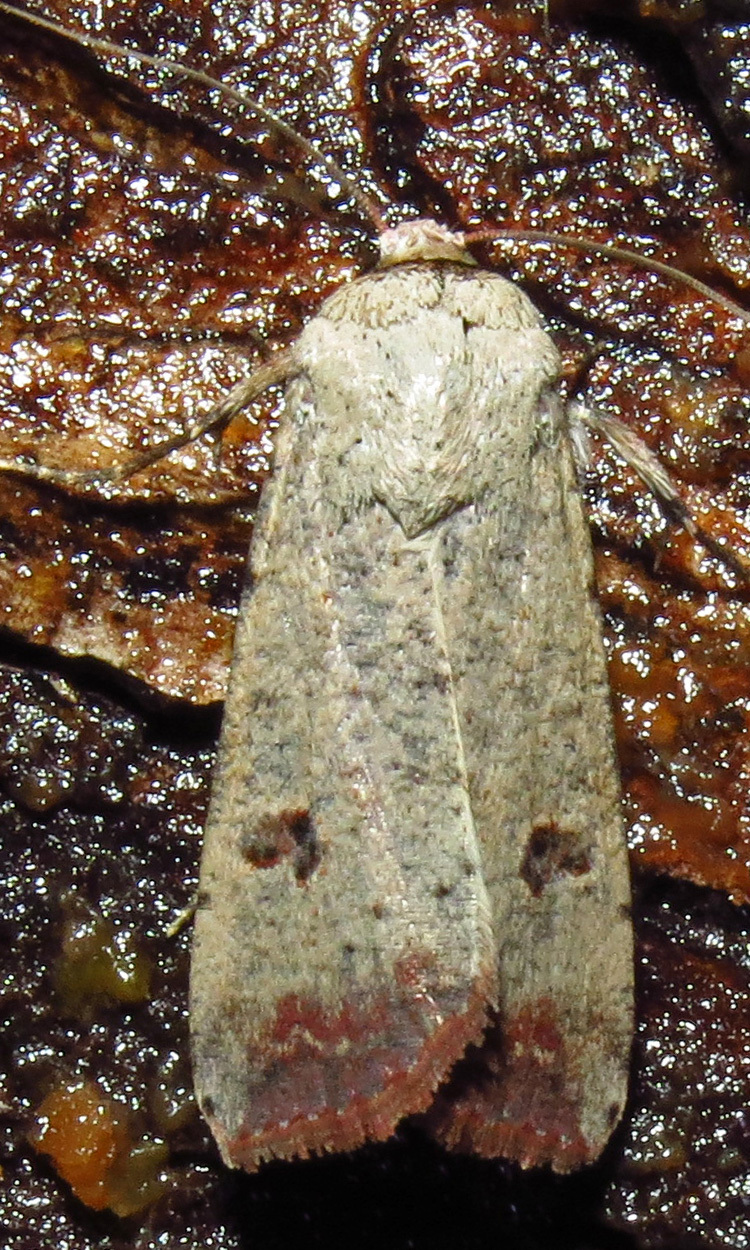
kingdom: Animalia
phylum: Arthropoda
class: Insecta
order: Lepidoptera
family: Noctuidae
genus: Anicla
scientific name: Anicla infecta
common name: Green cutworm
